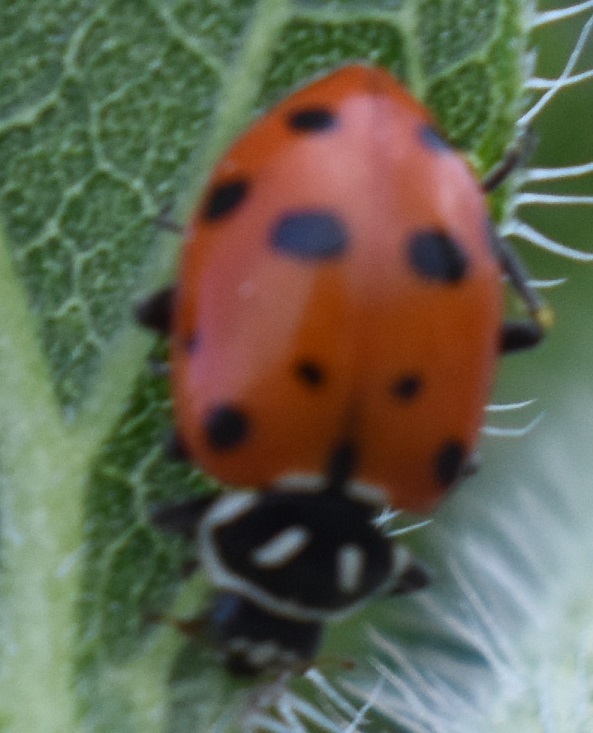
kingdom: Animalia
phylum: Arthropoda
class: Insecta
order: Coleoptera
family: Coccinellidae
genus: Hippodamia
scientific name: Hippodamia convergens
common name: Convergent lady beetle
